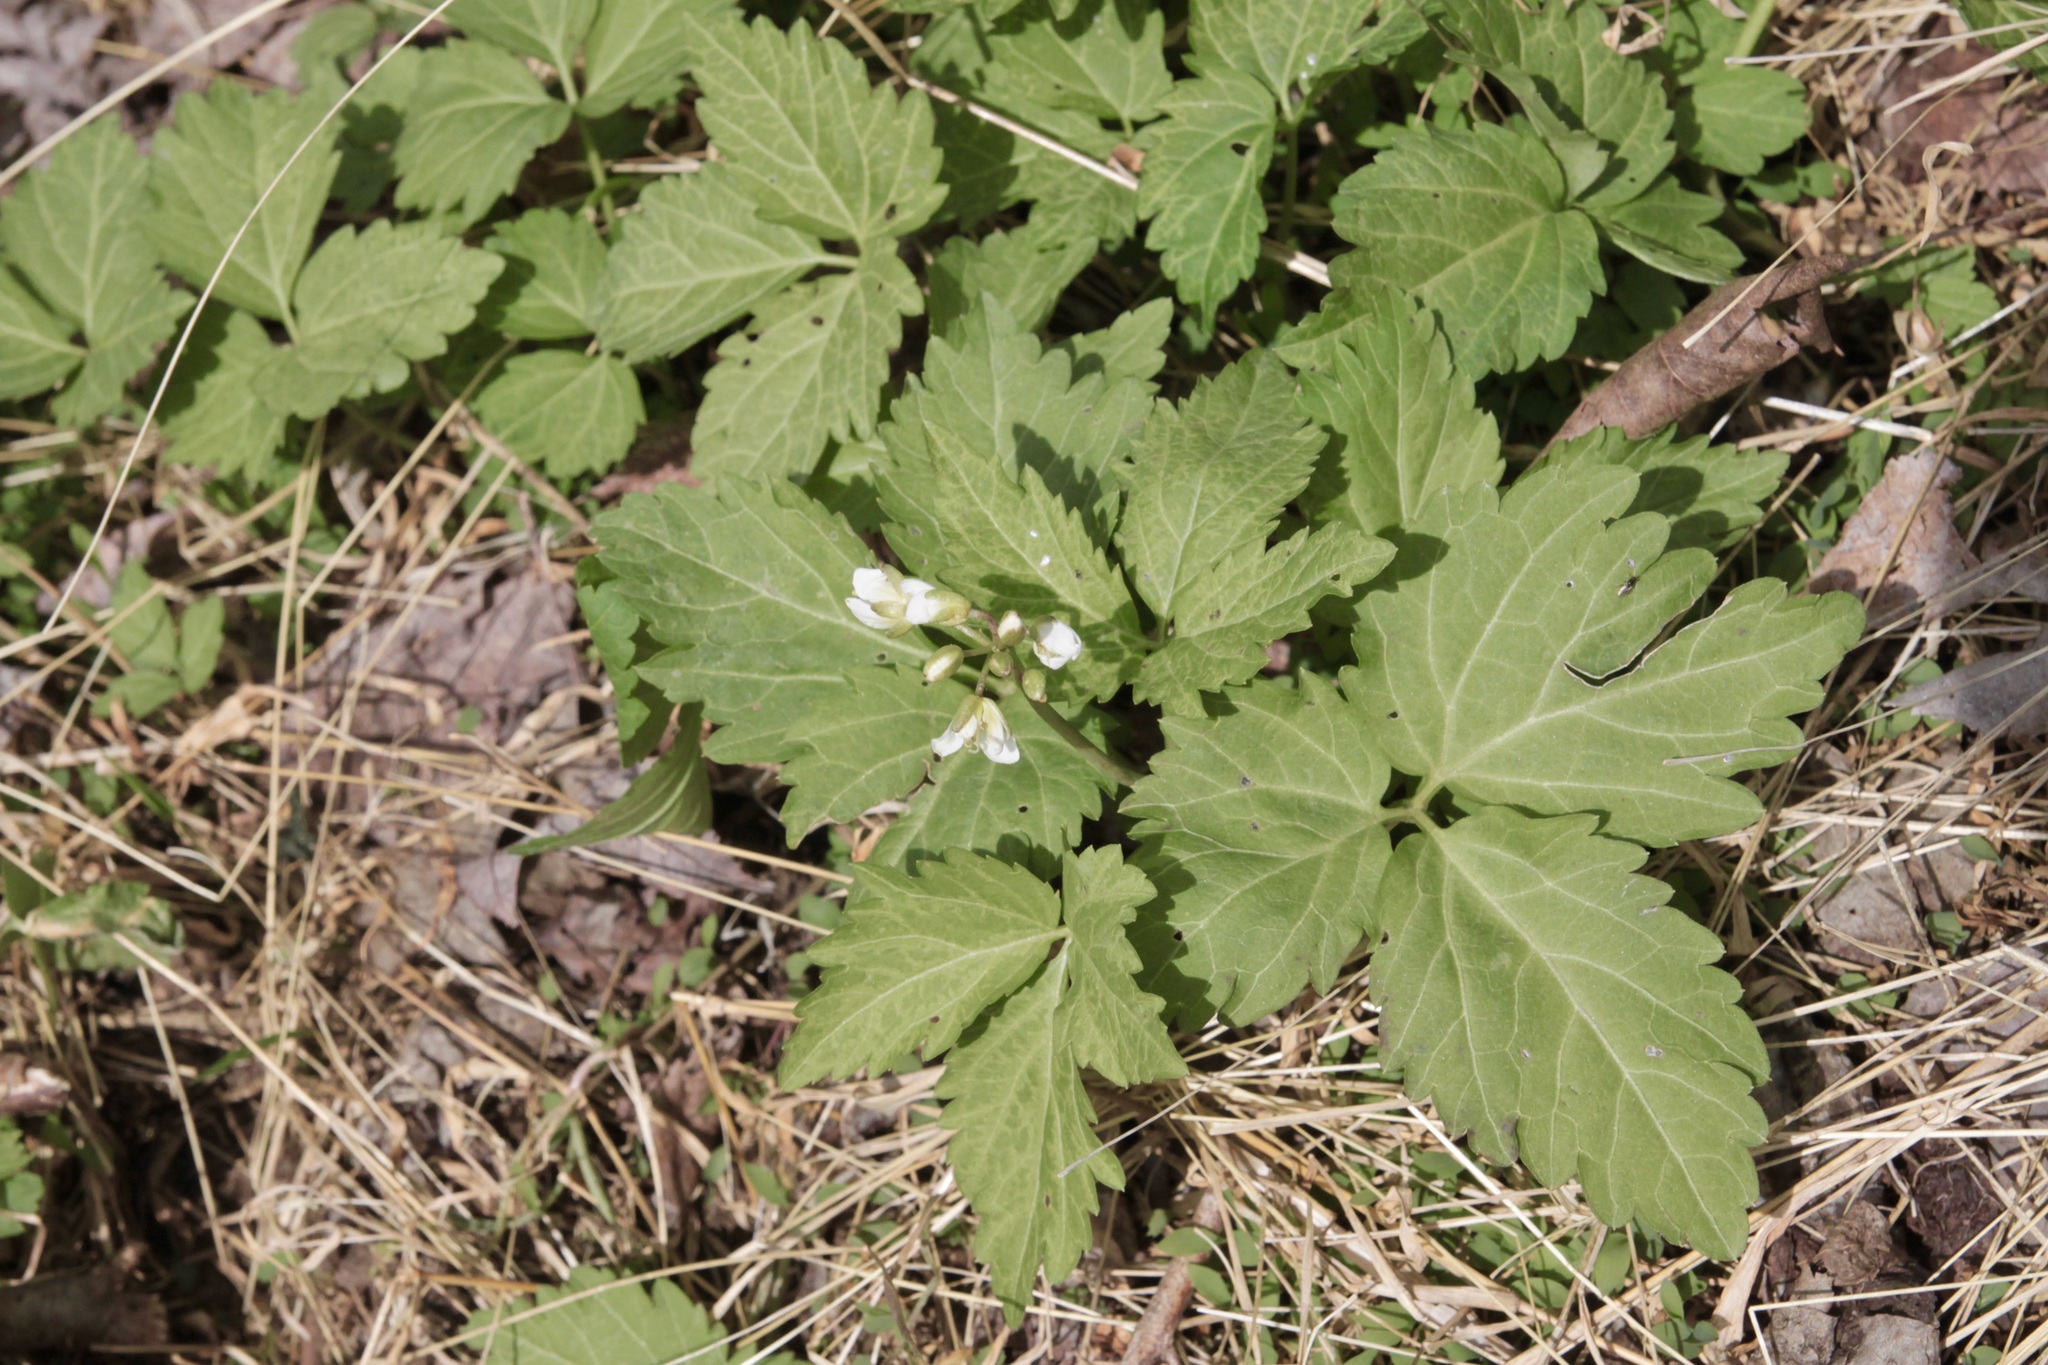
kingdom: Plantae
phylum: Tracheophyta
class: Magnoliopsida
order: Brassicales
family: Brassicaceae
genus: Cardamine
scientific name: Cardamine diphylla
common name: Broad-leaved toothwort
